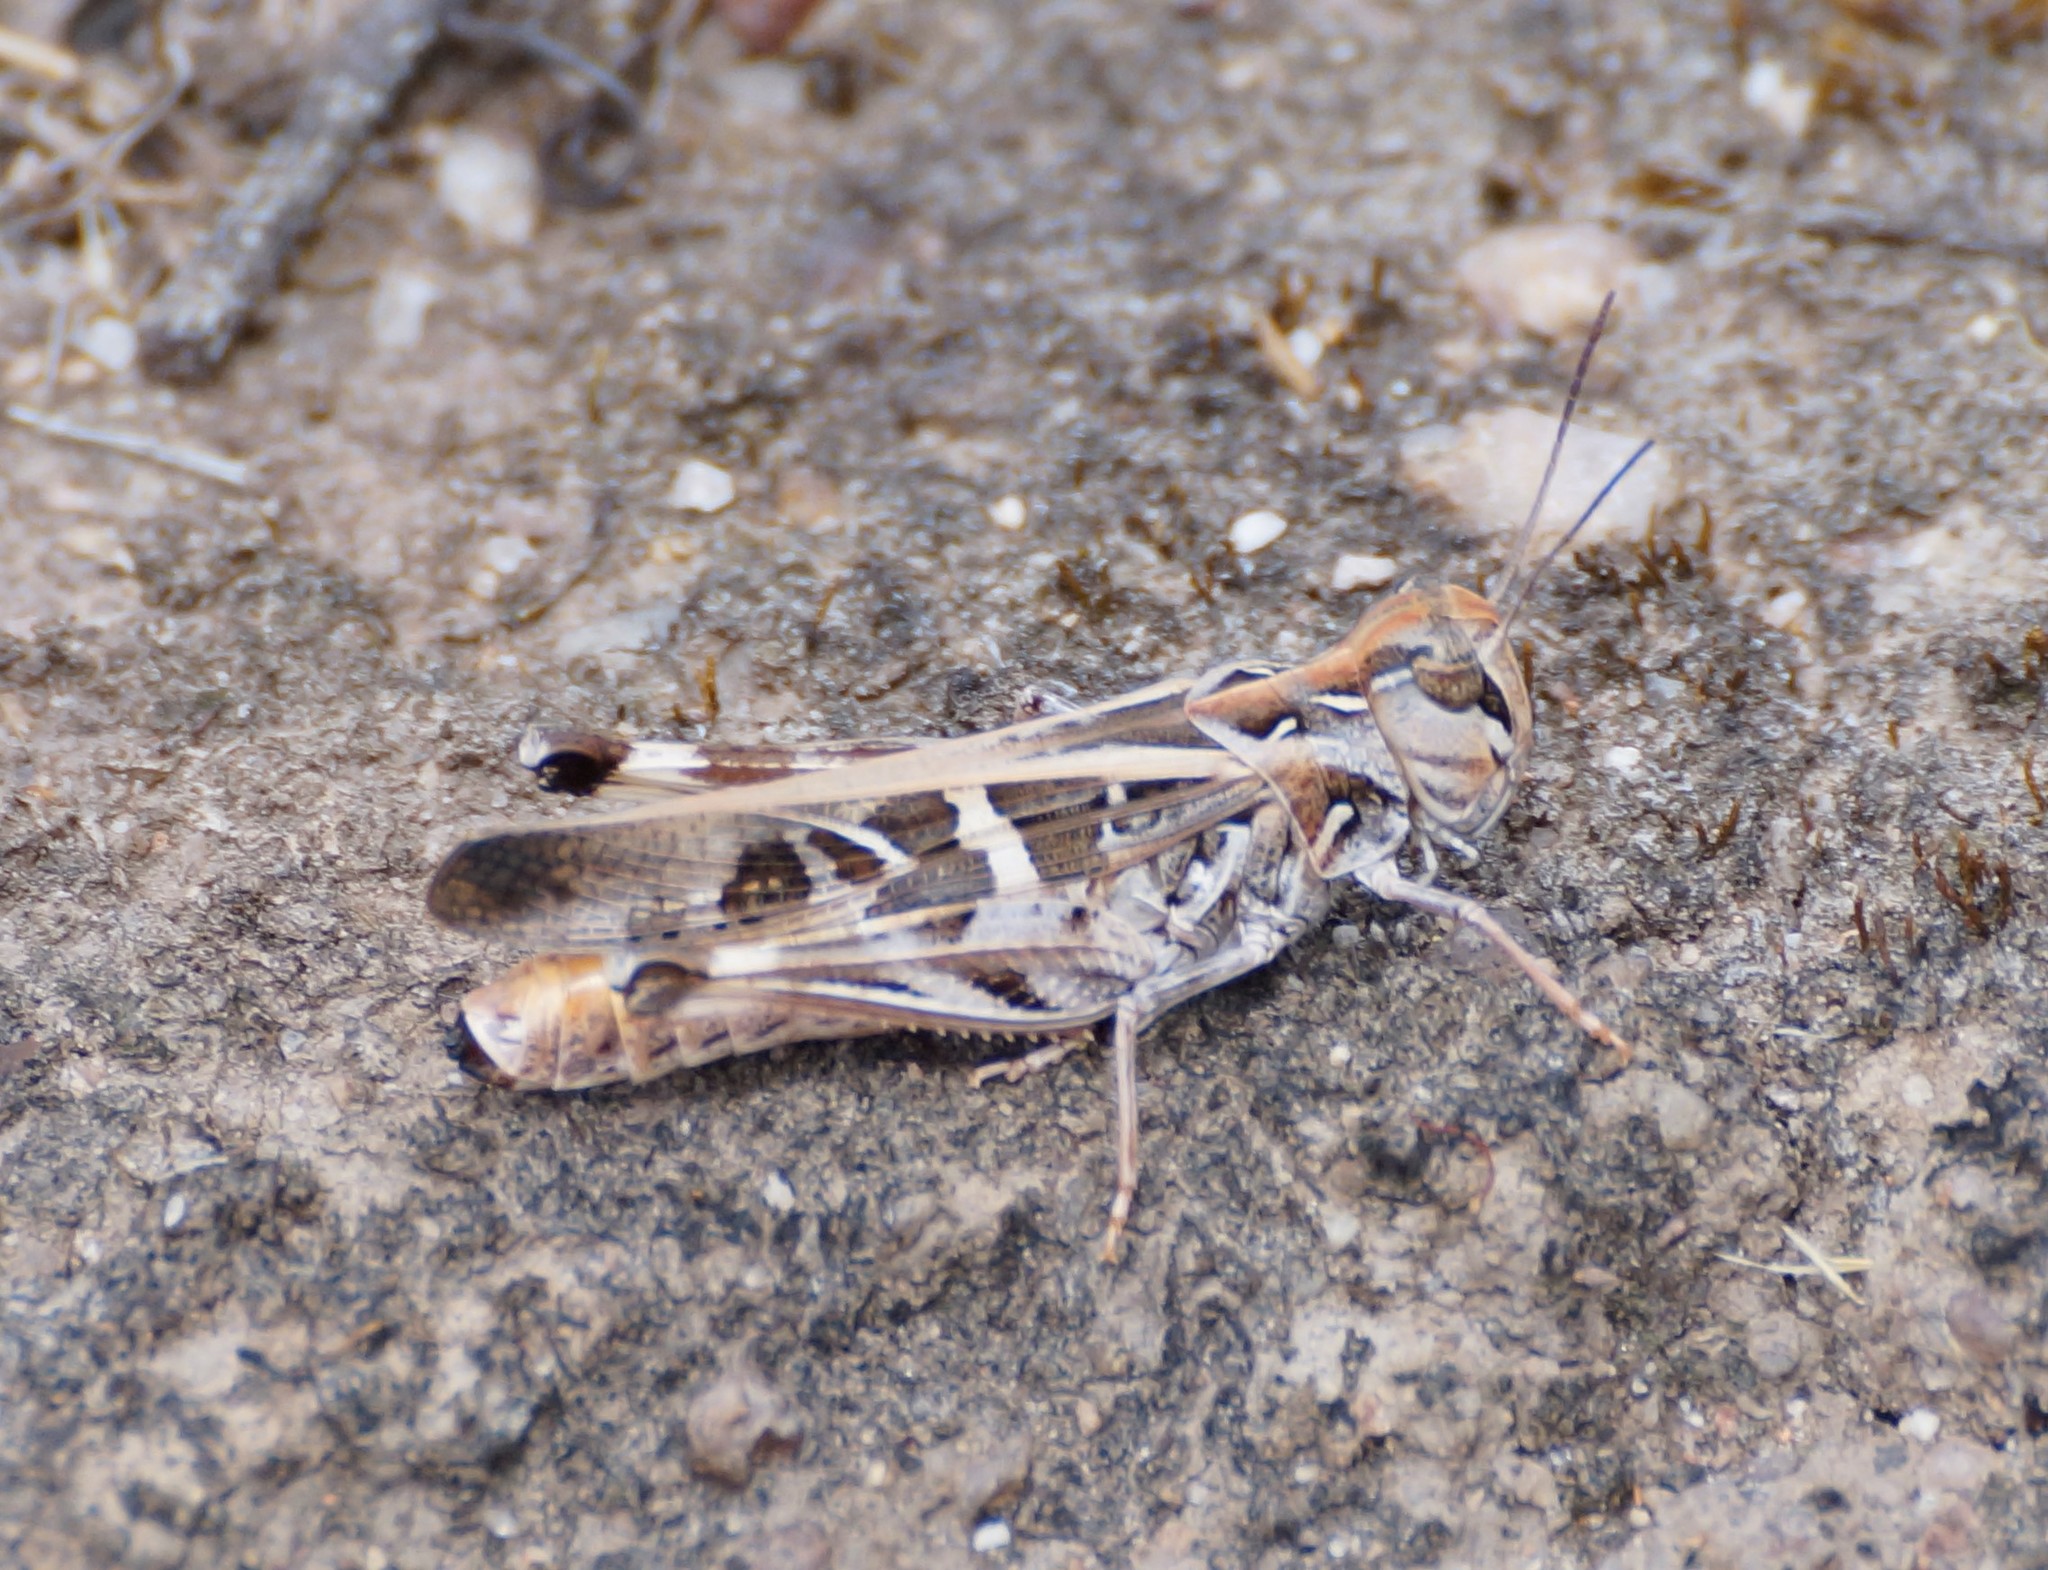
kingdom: Animalia
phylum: Arthropoda
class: Insecta
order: Orthoptera
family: Acrididae
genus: Oedaleus
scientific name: Oedaleus australis
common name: Eastern oedaleus
